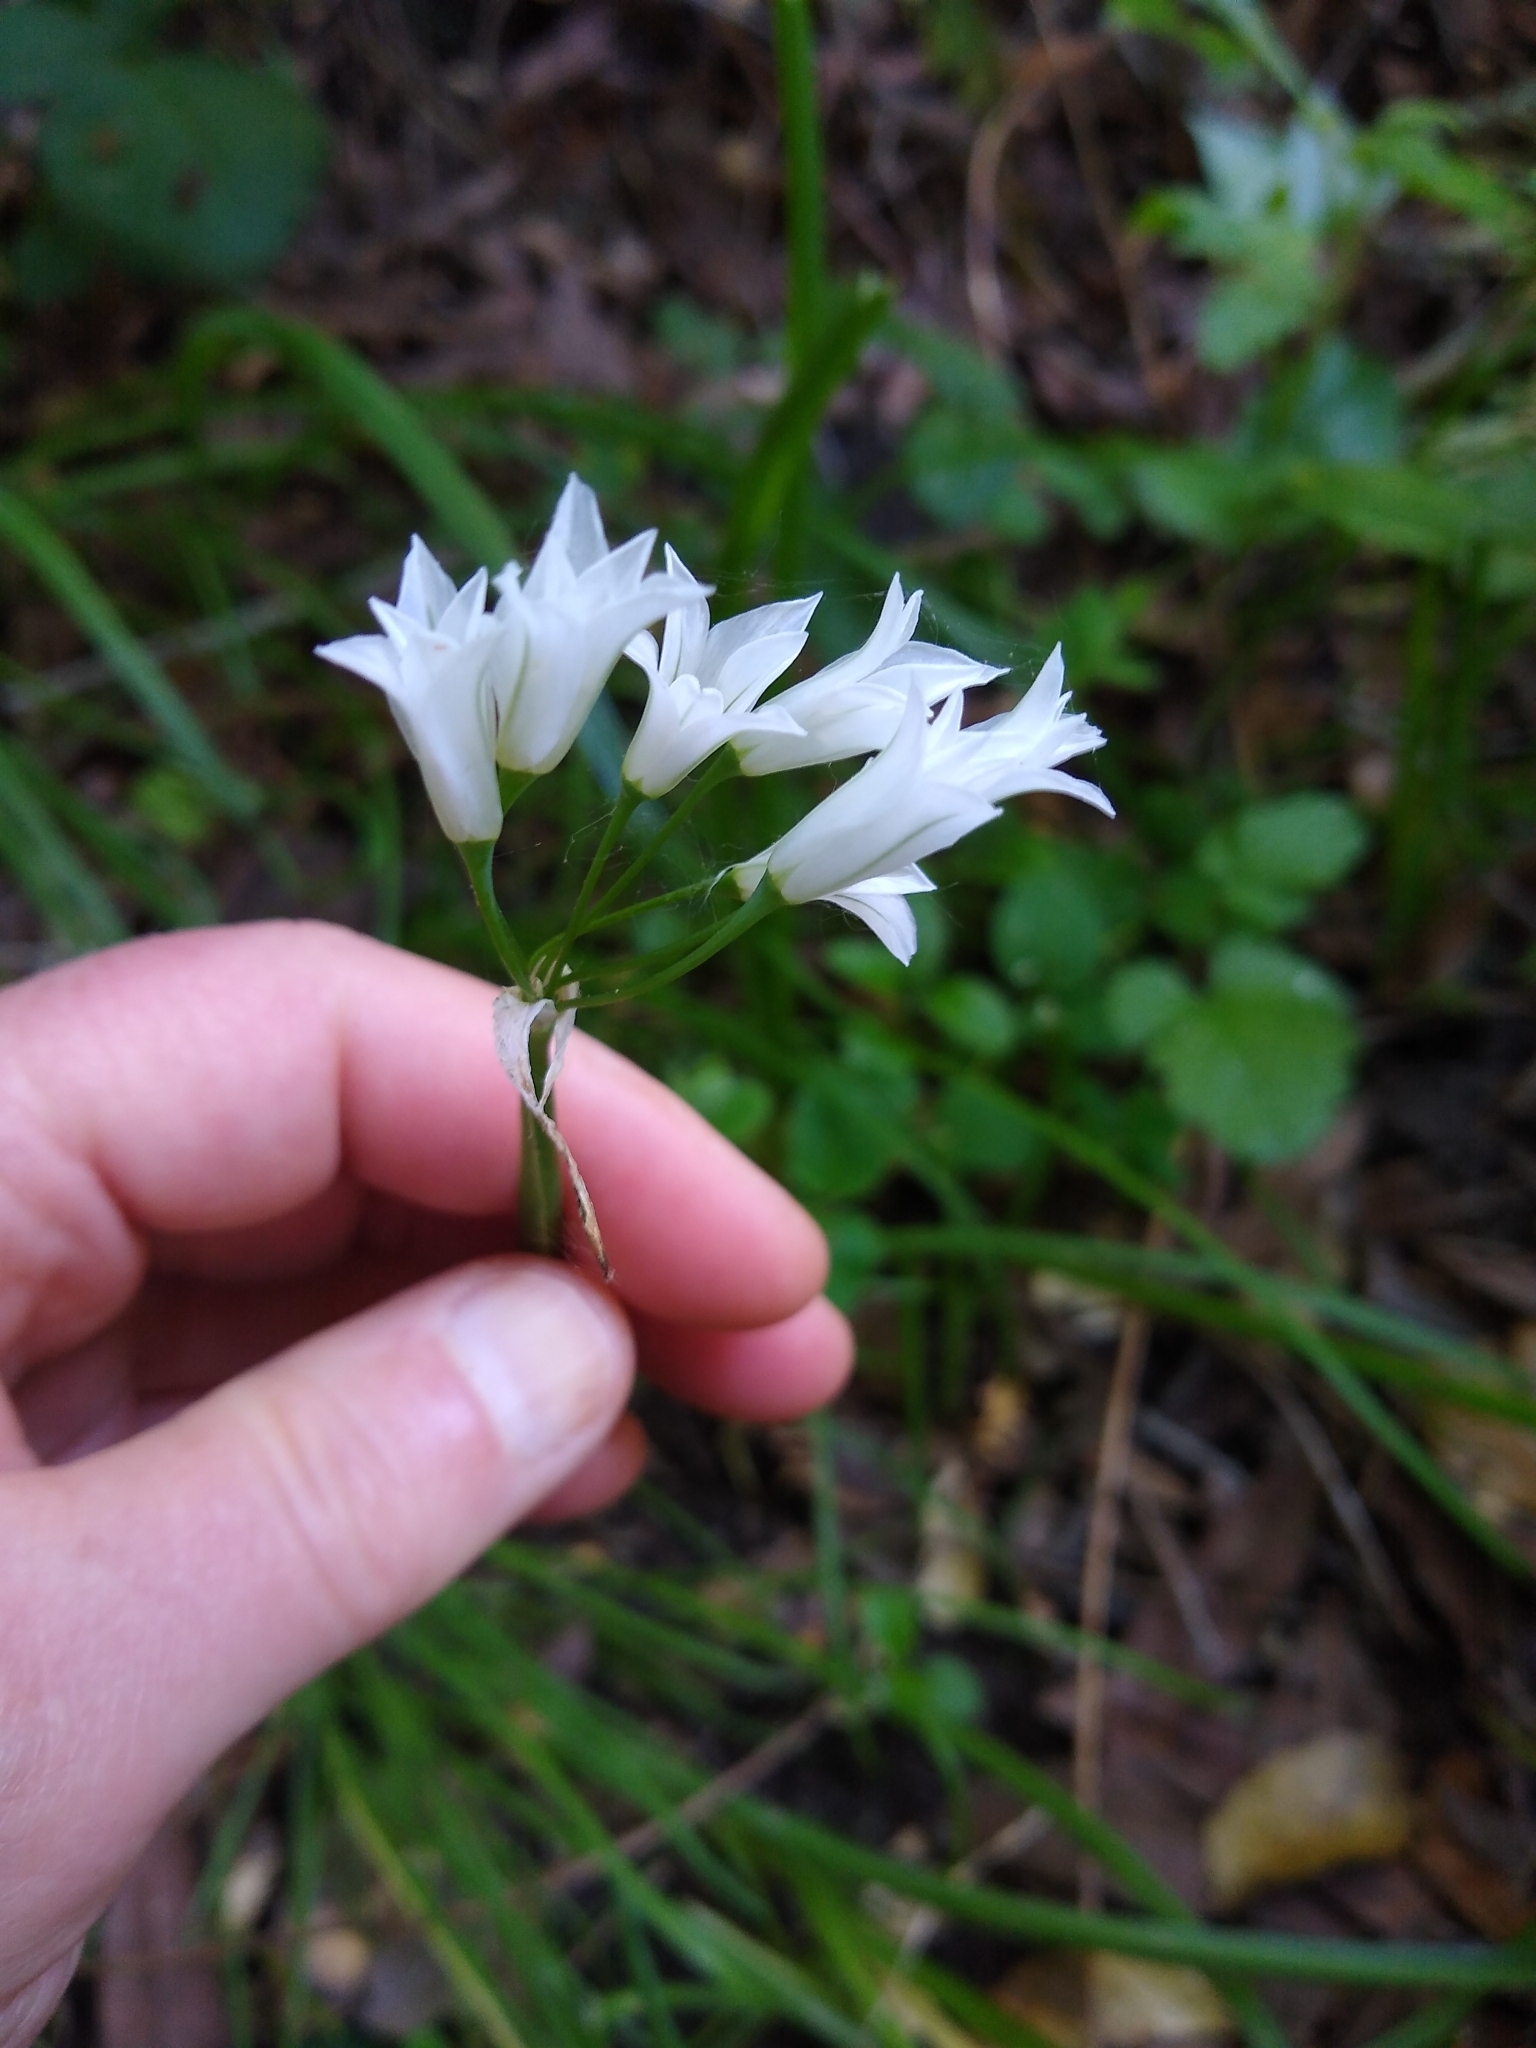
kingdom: Plantae
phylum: Tracheophyta
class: Liliopsida
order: Asparagales
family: Amaryllidaceae
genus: Allium
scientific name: Allium triquetrum
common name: Three-cornered garlic
